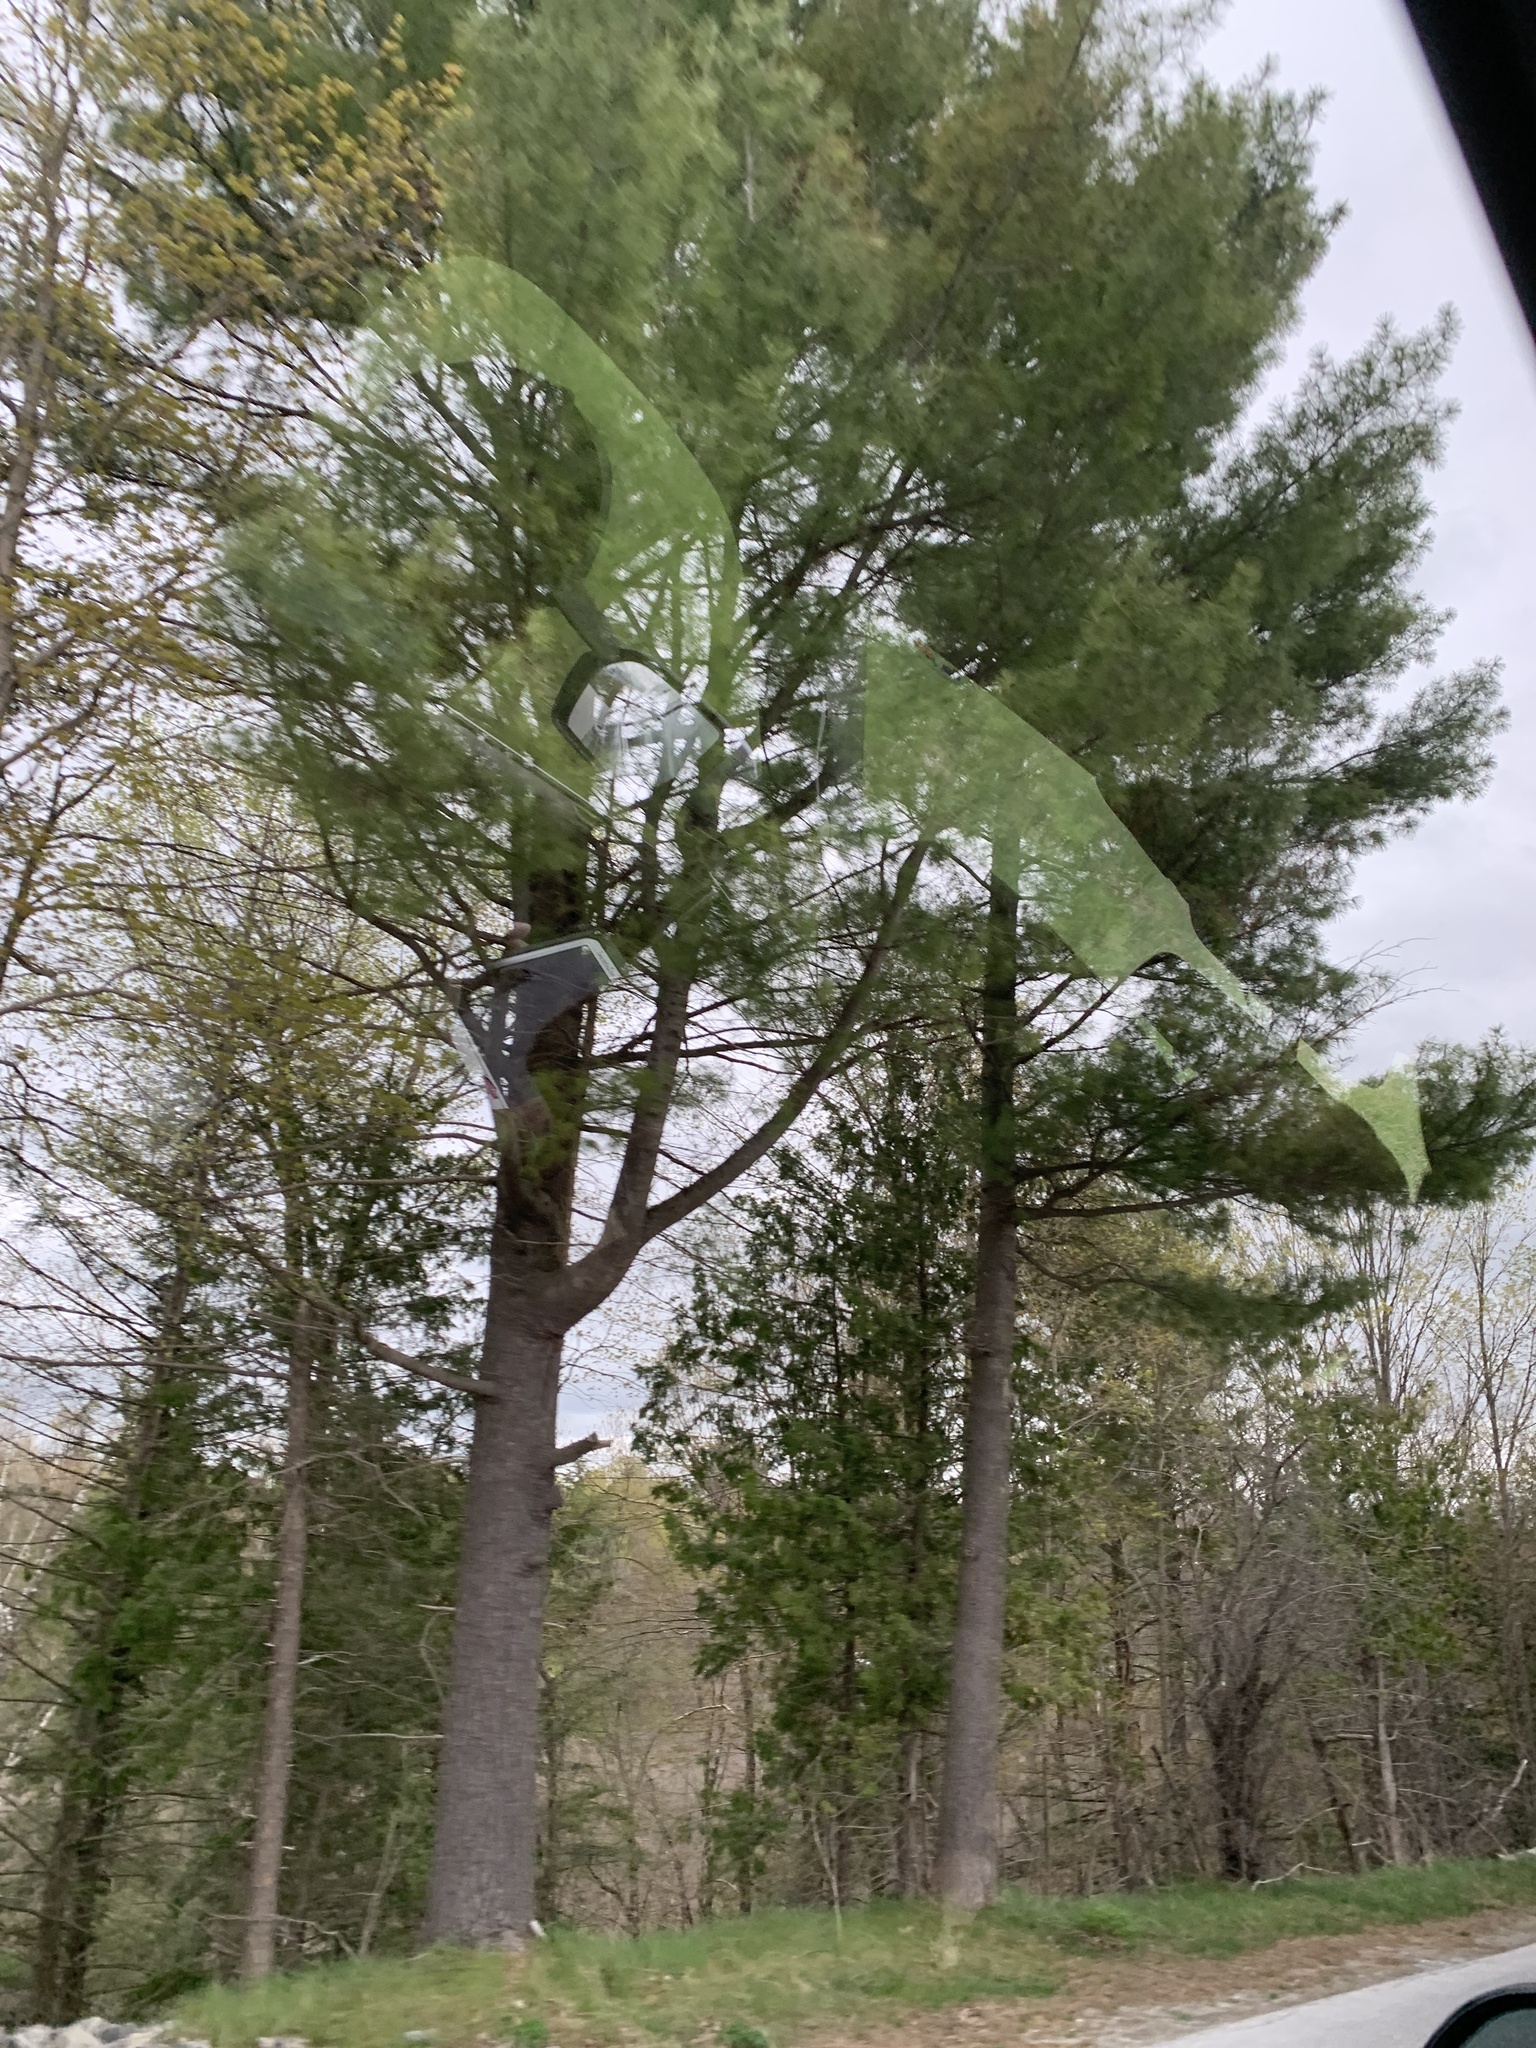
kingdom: Plantae
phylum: Tracheophyta
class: Pinopsida
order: Pinales
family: Pinaceae
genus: Pinus
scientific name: Pinus strobus
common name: Weymouth pine
